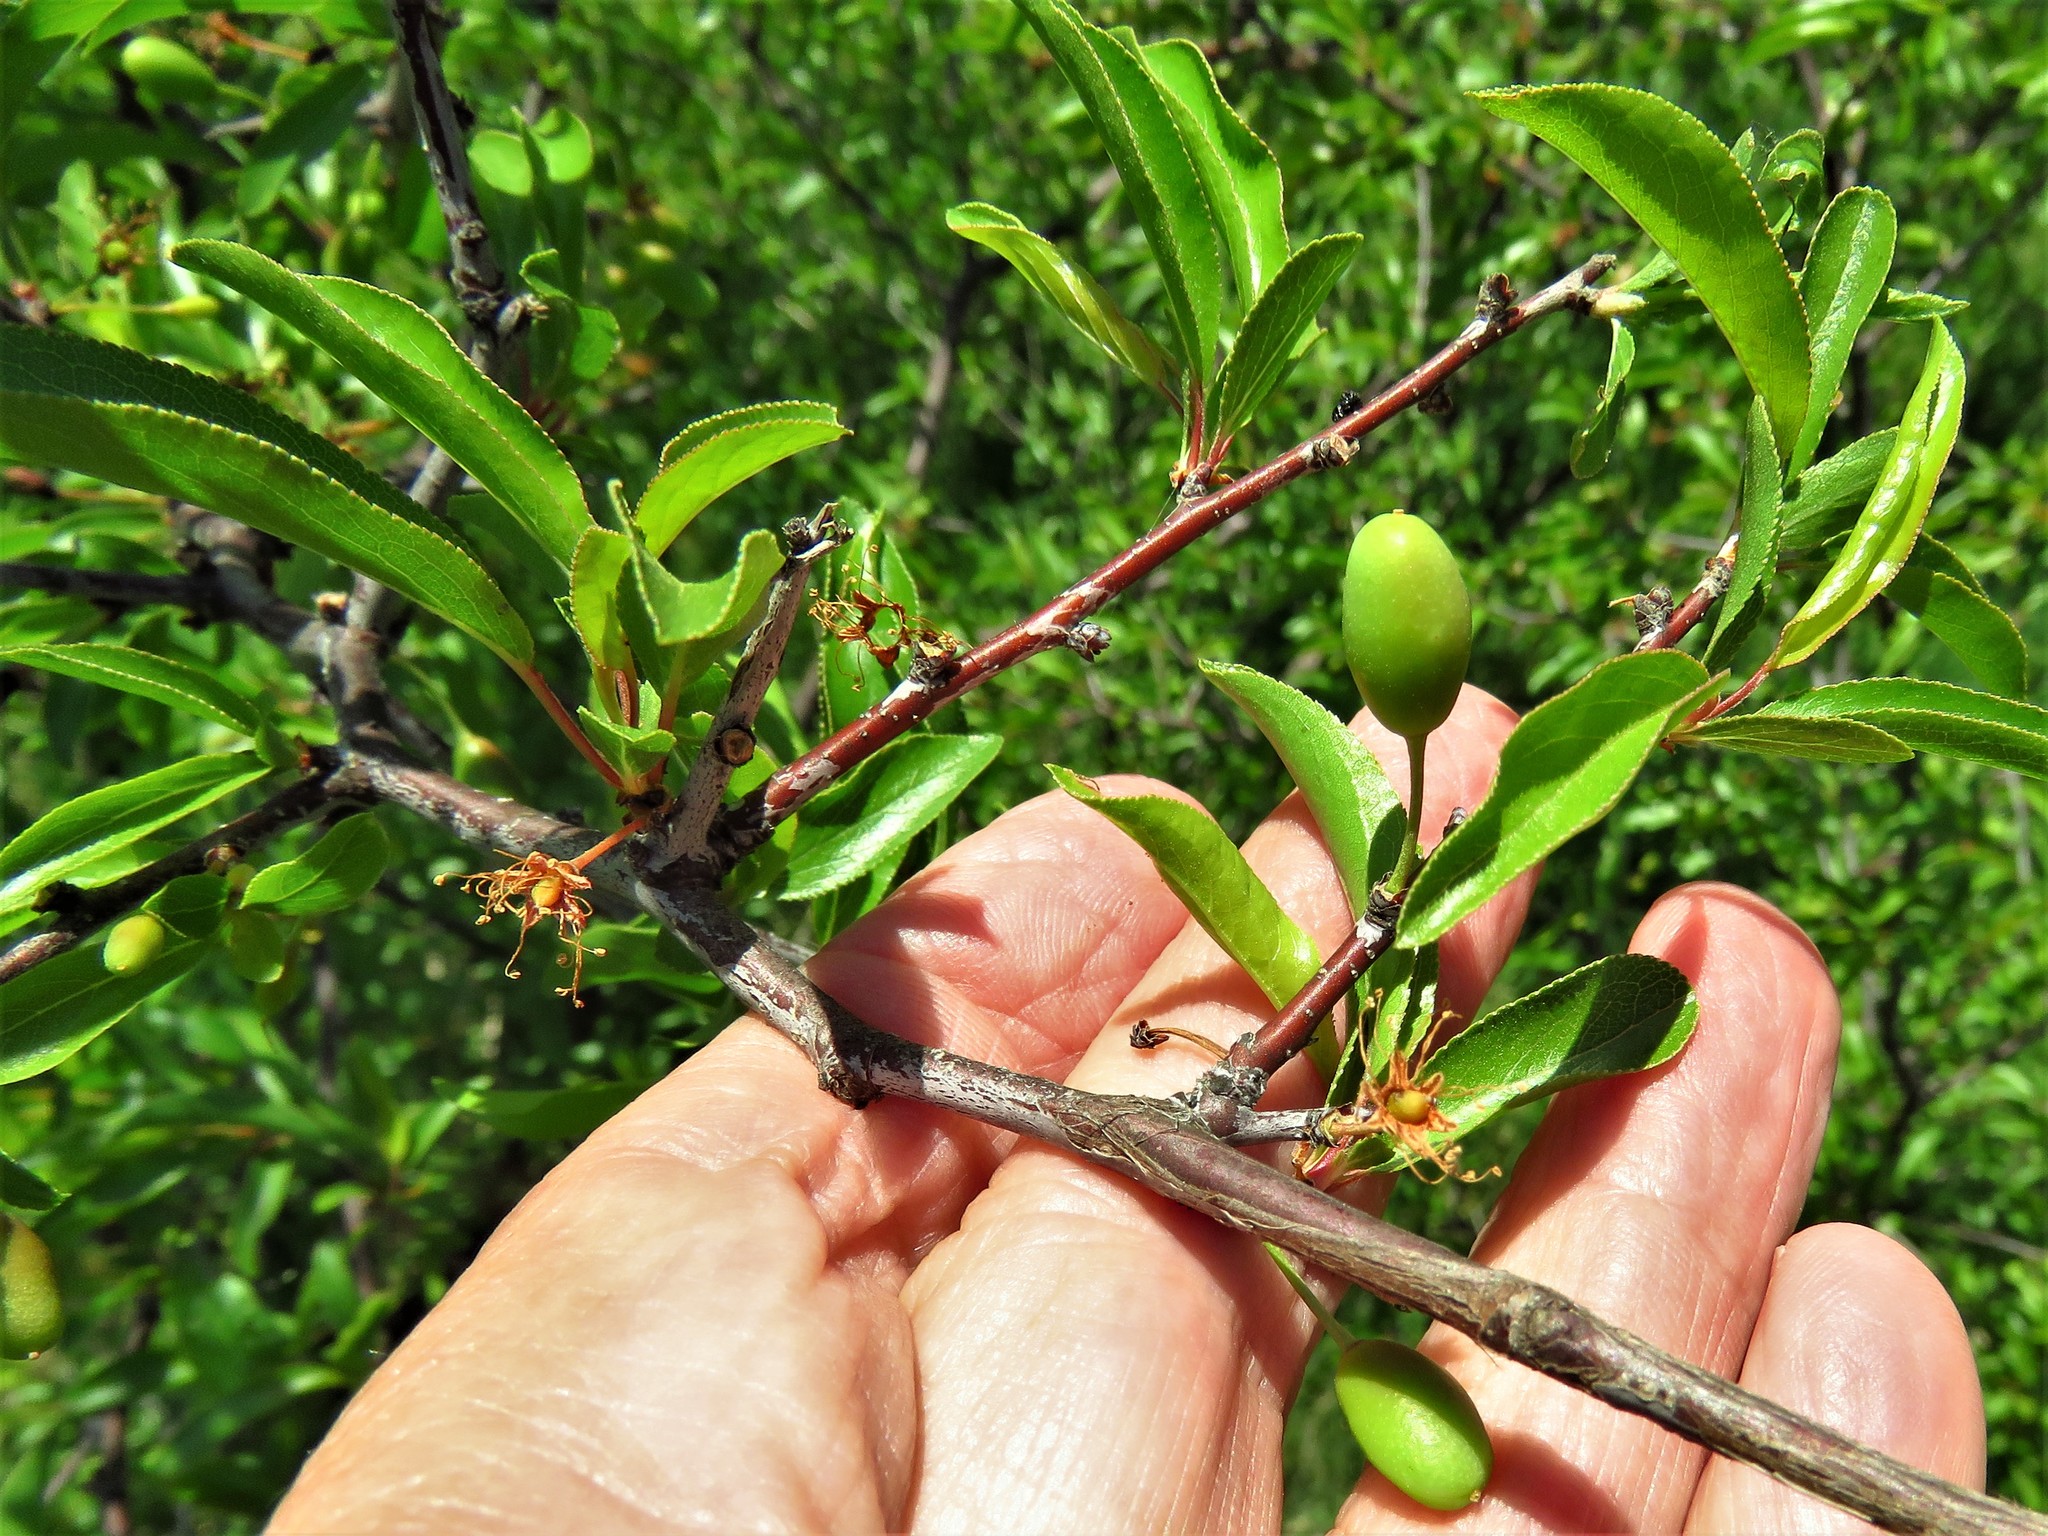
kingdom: Plantae
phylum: Tracheophyta
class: Magnoliopsida
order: Rosales
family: Rosaceae
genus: Prunus
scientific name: Prunus angustifolia
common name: Cherokee plum
